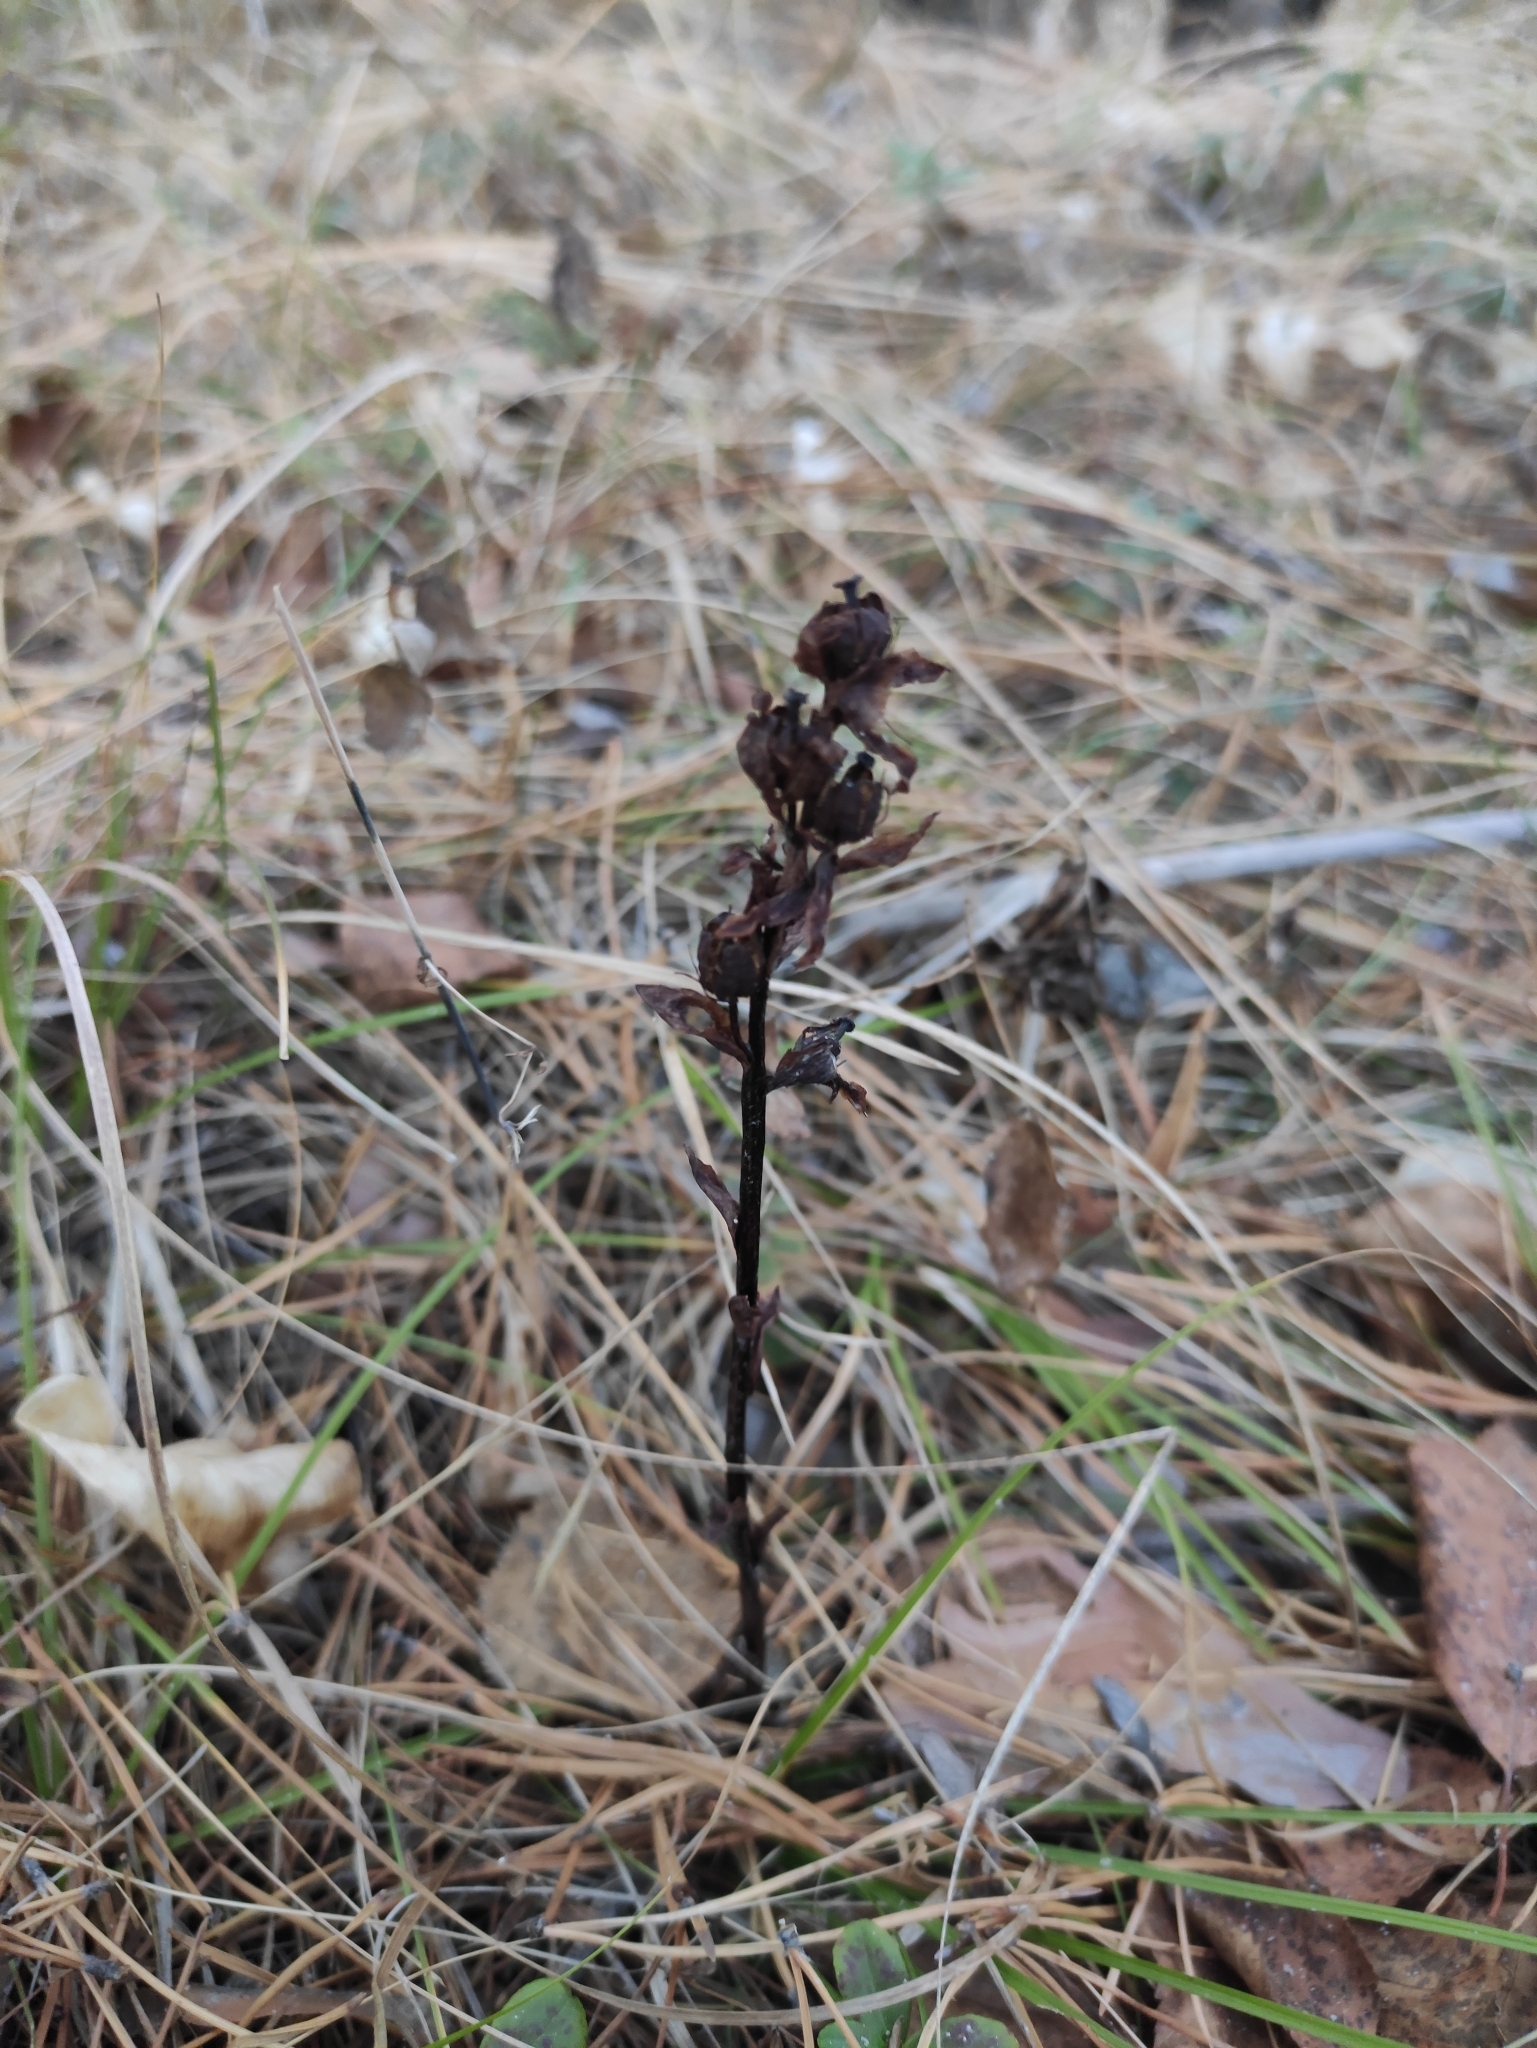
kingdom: Plantae
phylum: Tracheophyta
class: Magnoliopsida
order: Ericales
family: Ericaceae
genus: Hypopitys
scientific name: Hypopitys monotropa
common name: Yellow bird's-nest
